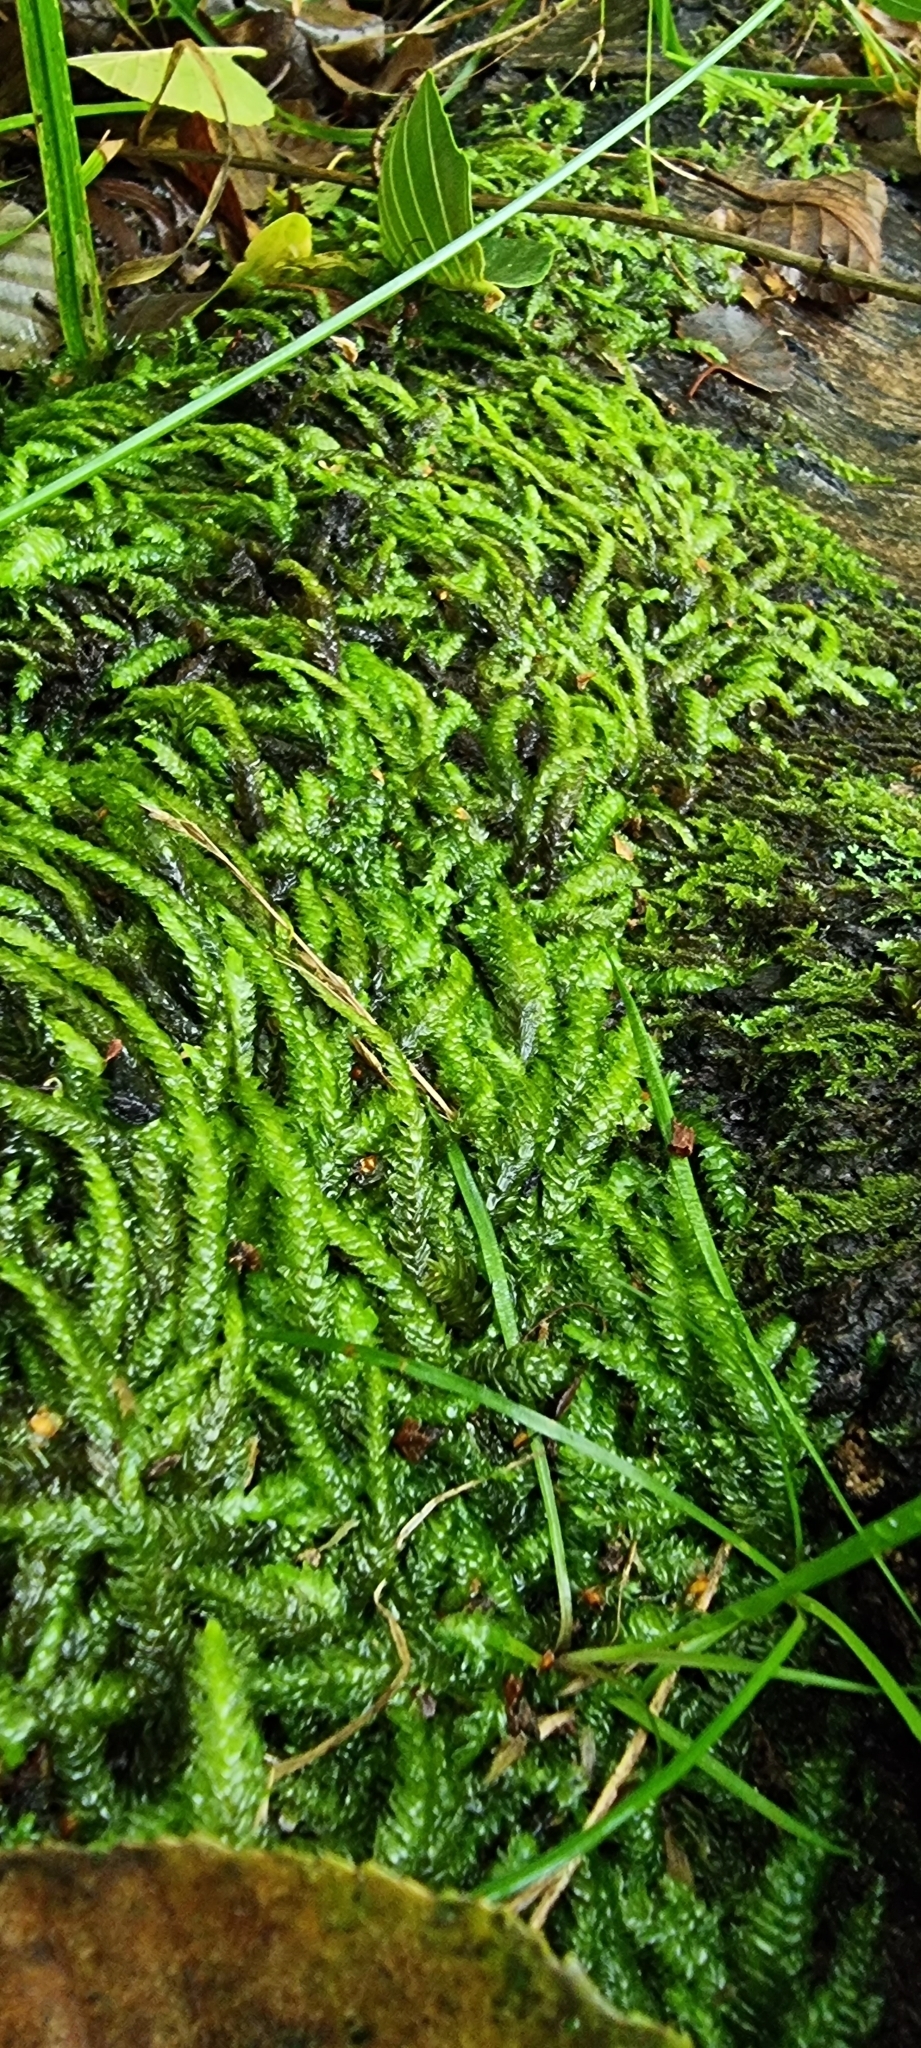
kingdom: Plantae
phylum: Bryophyta
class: Bryopsida
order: Hypnales
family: Plagiotheciaceae
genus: Plagiothecium
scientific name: Plagiothecium undulatum
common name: Waved silk-moss
